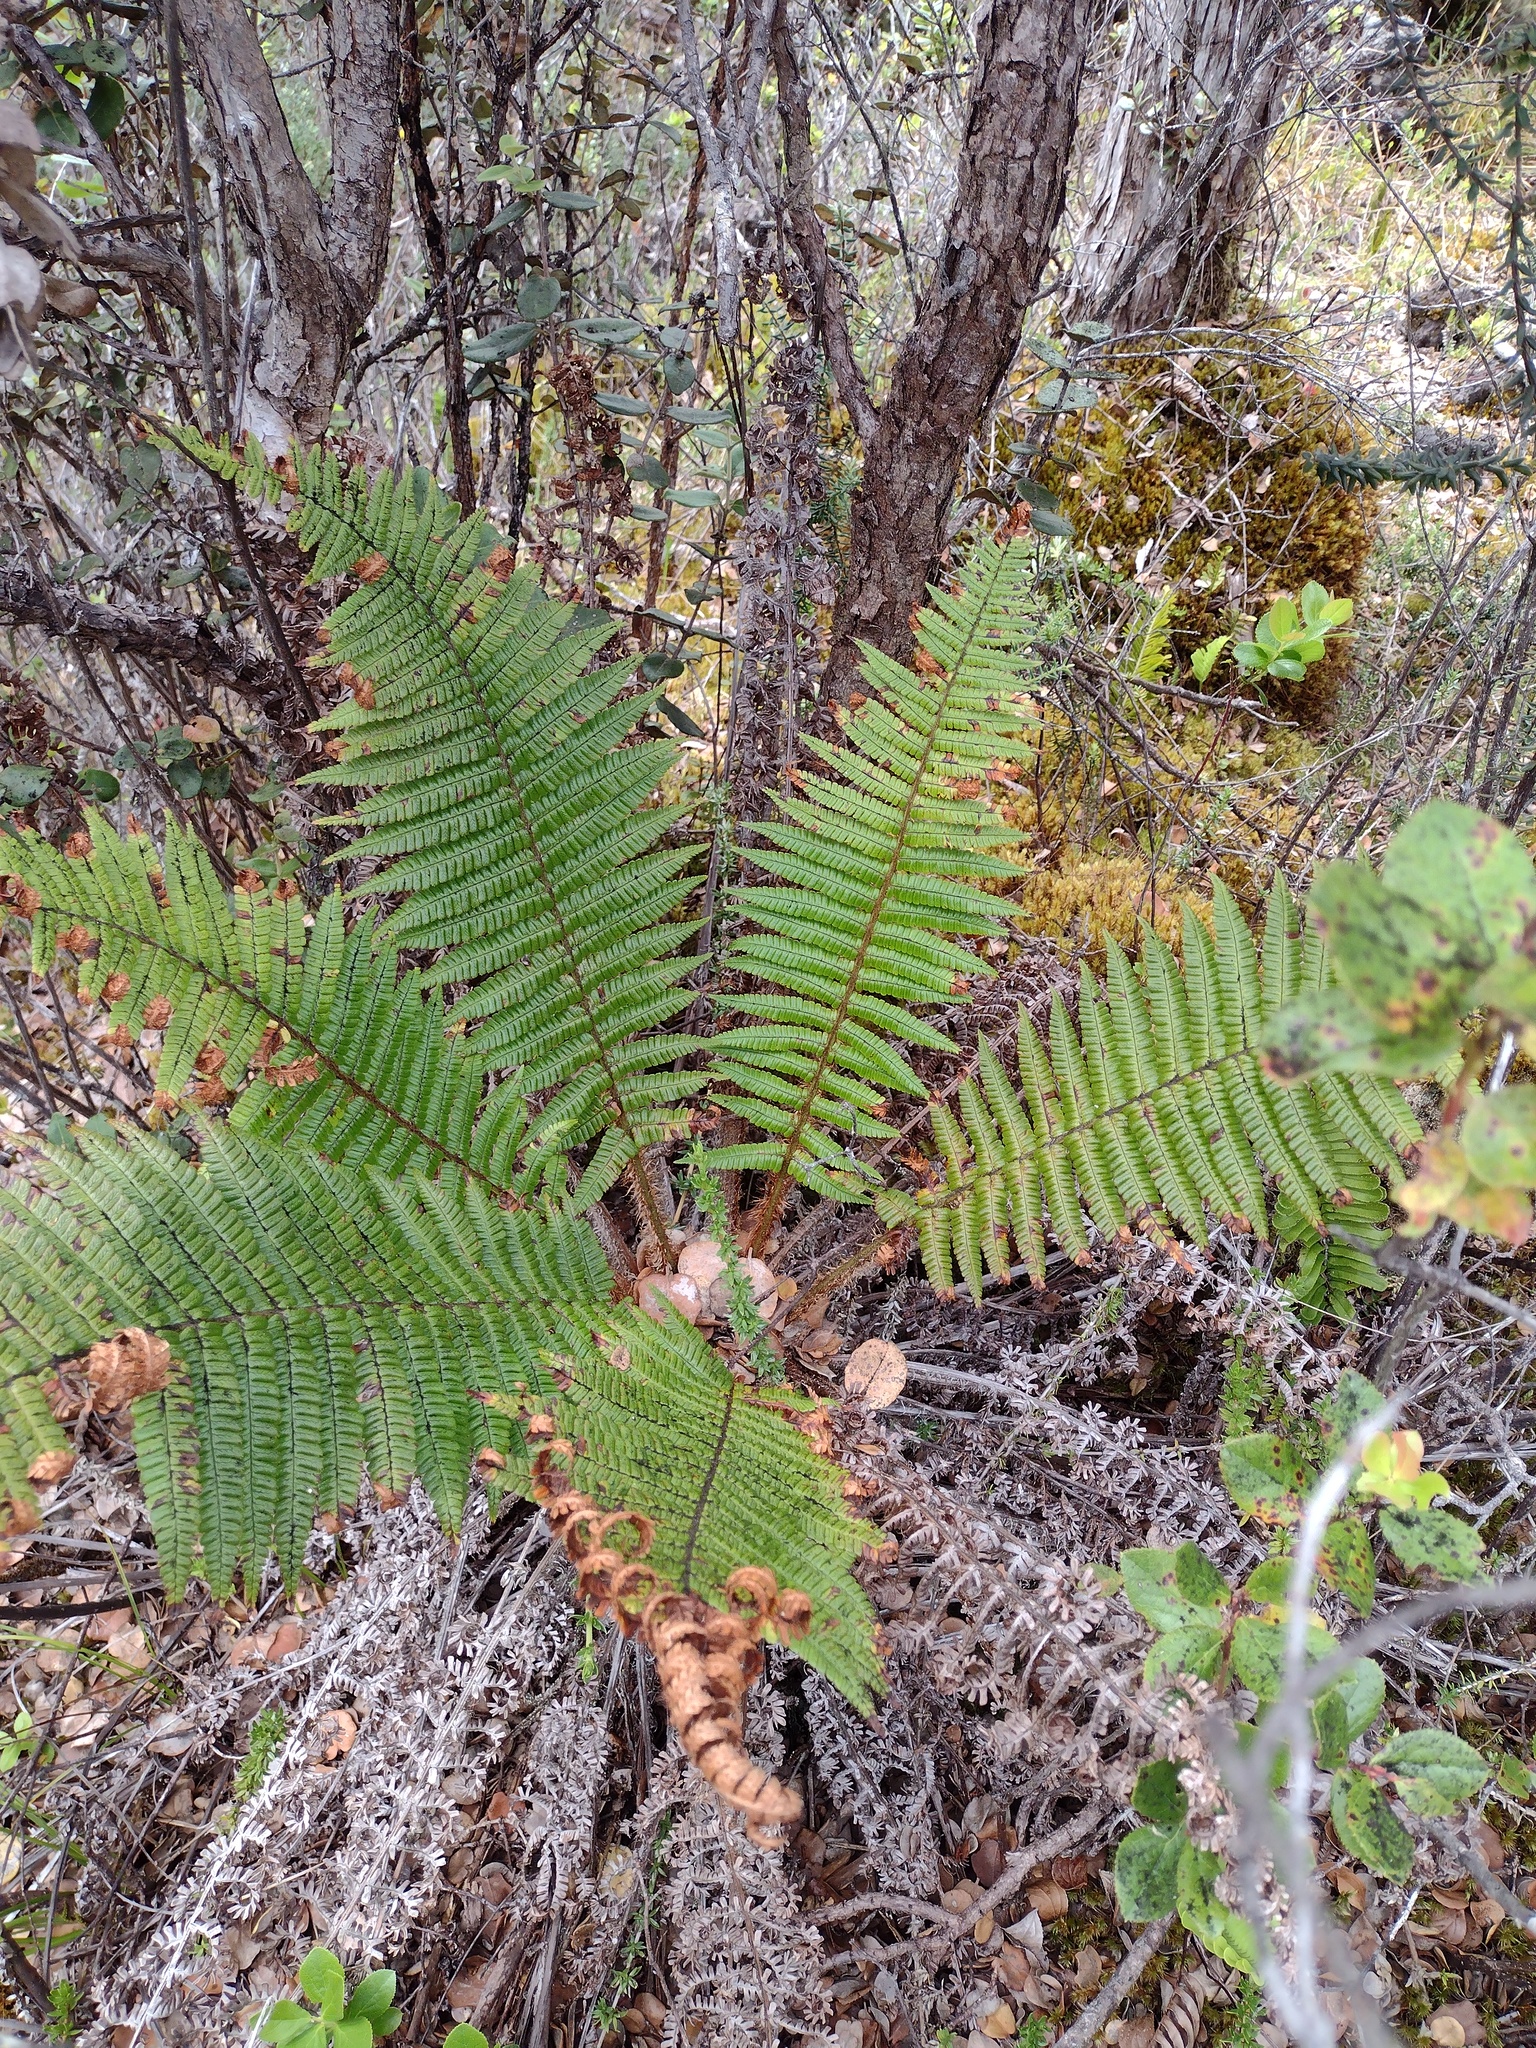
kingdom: Plantae
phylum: Tracheophyta
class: Polypodiopsida
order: Polypodiales
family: Dryopteridaceae
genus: Dryopteris
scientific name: Dryopteris wallichiana
